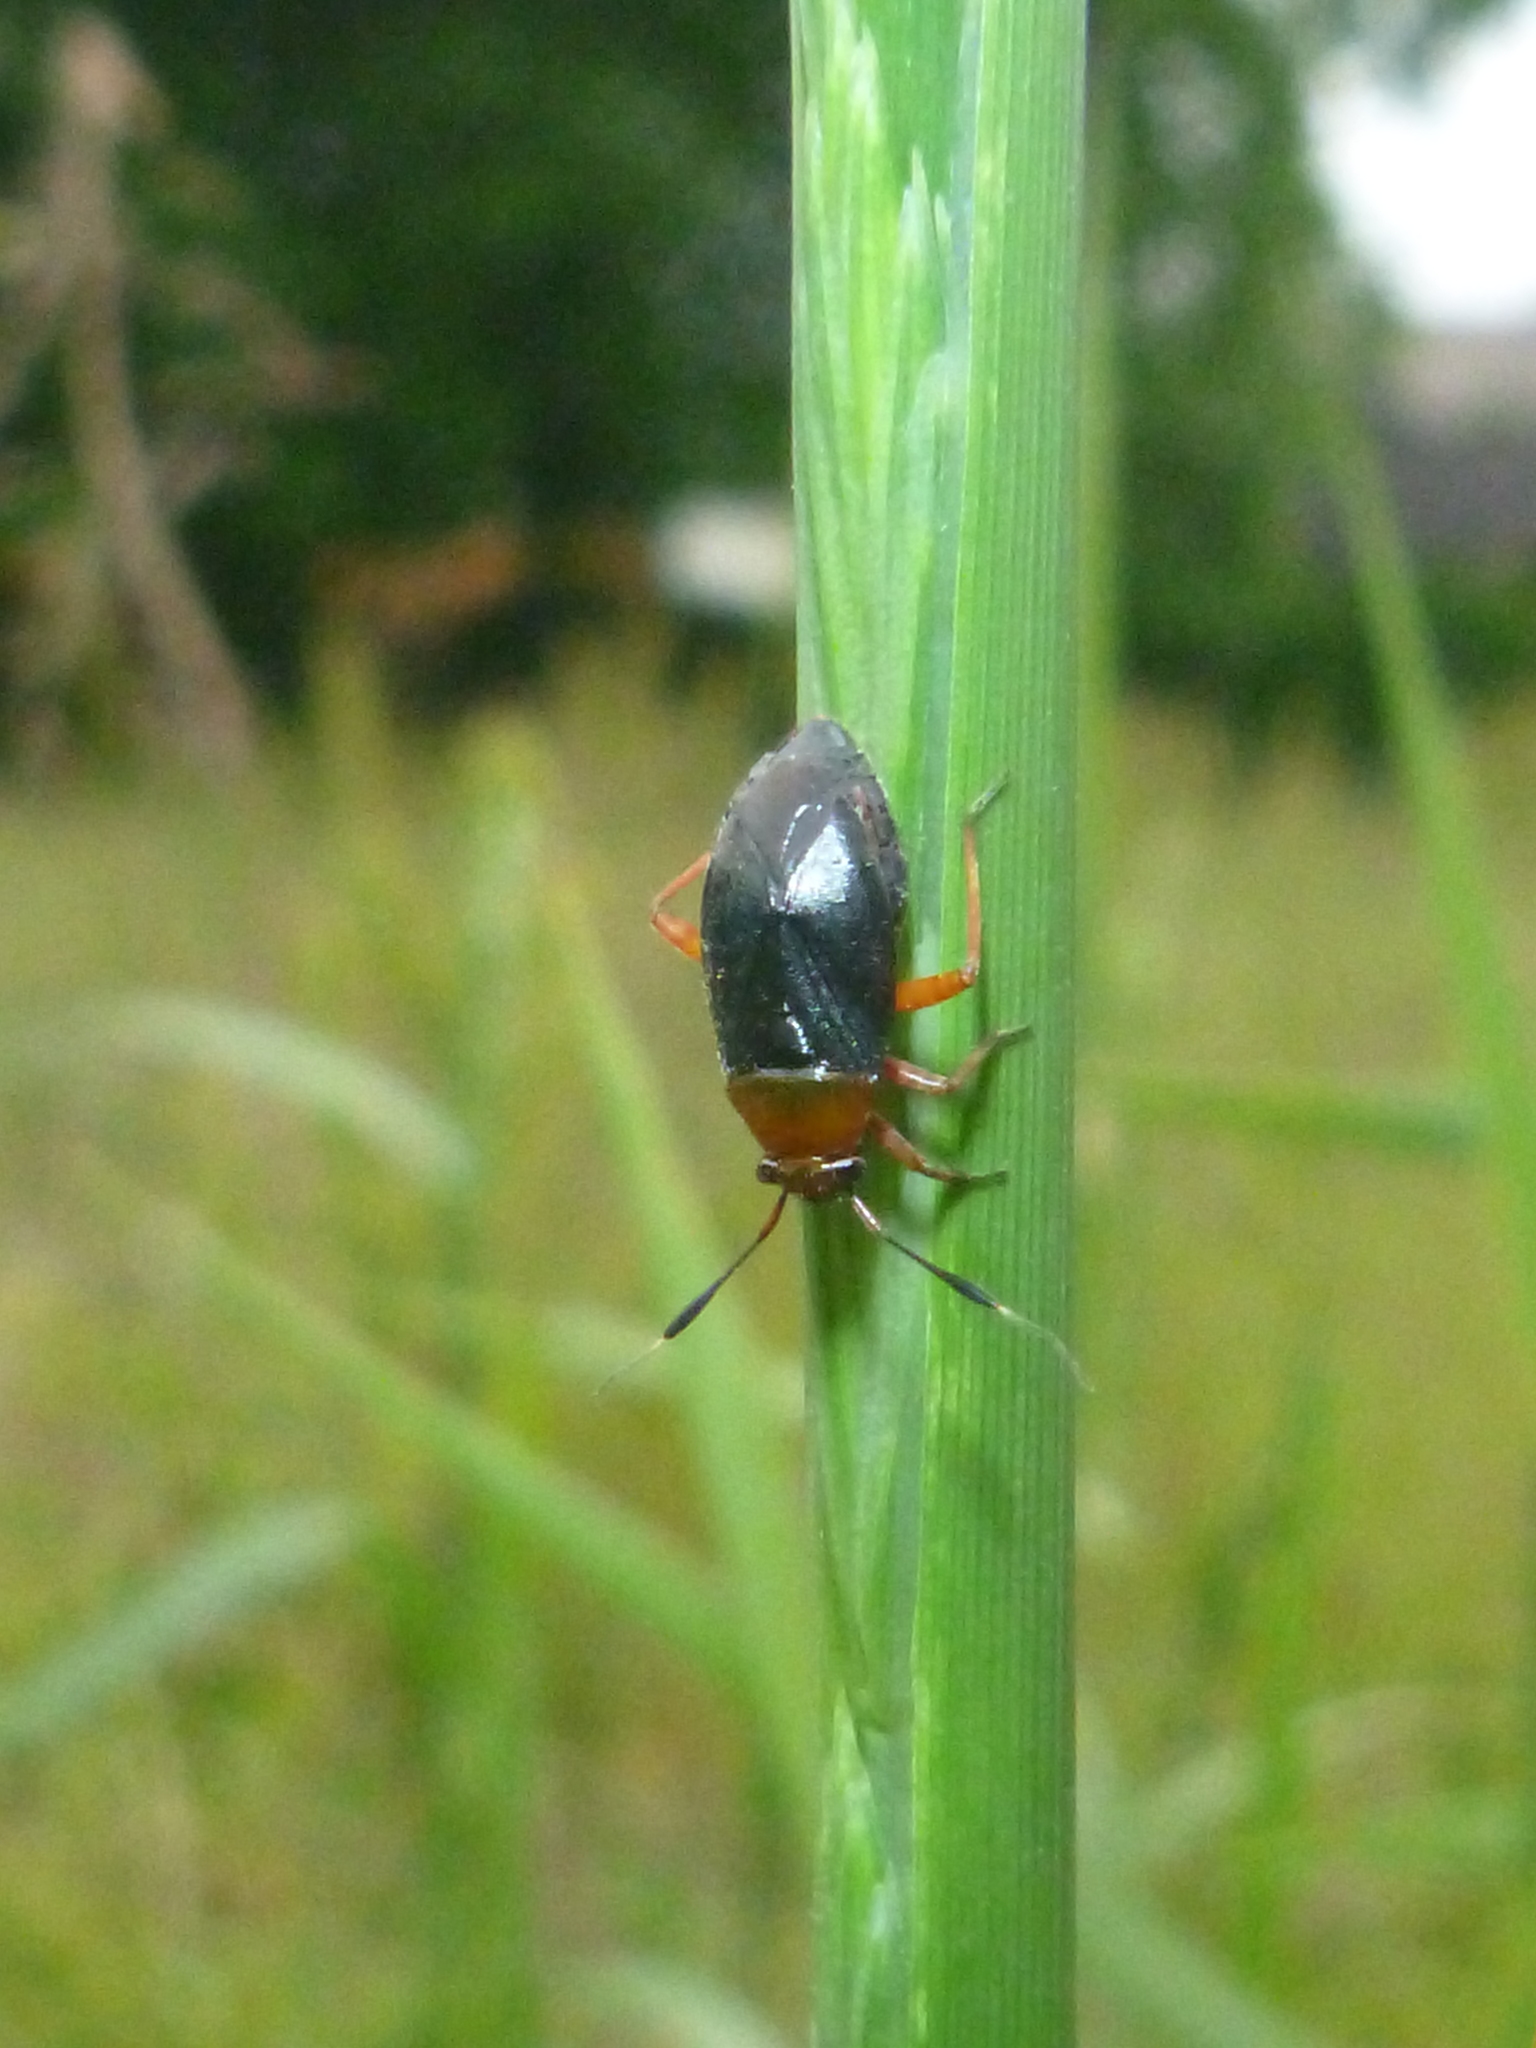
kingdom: Animalia
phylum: Arthropoda
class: Insecta
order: Hemiptera
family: Miridae
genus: Capsus
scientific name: Capsus ater
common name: Black plant bug
